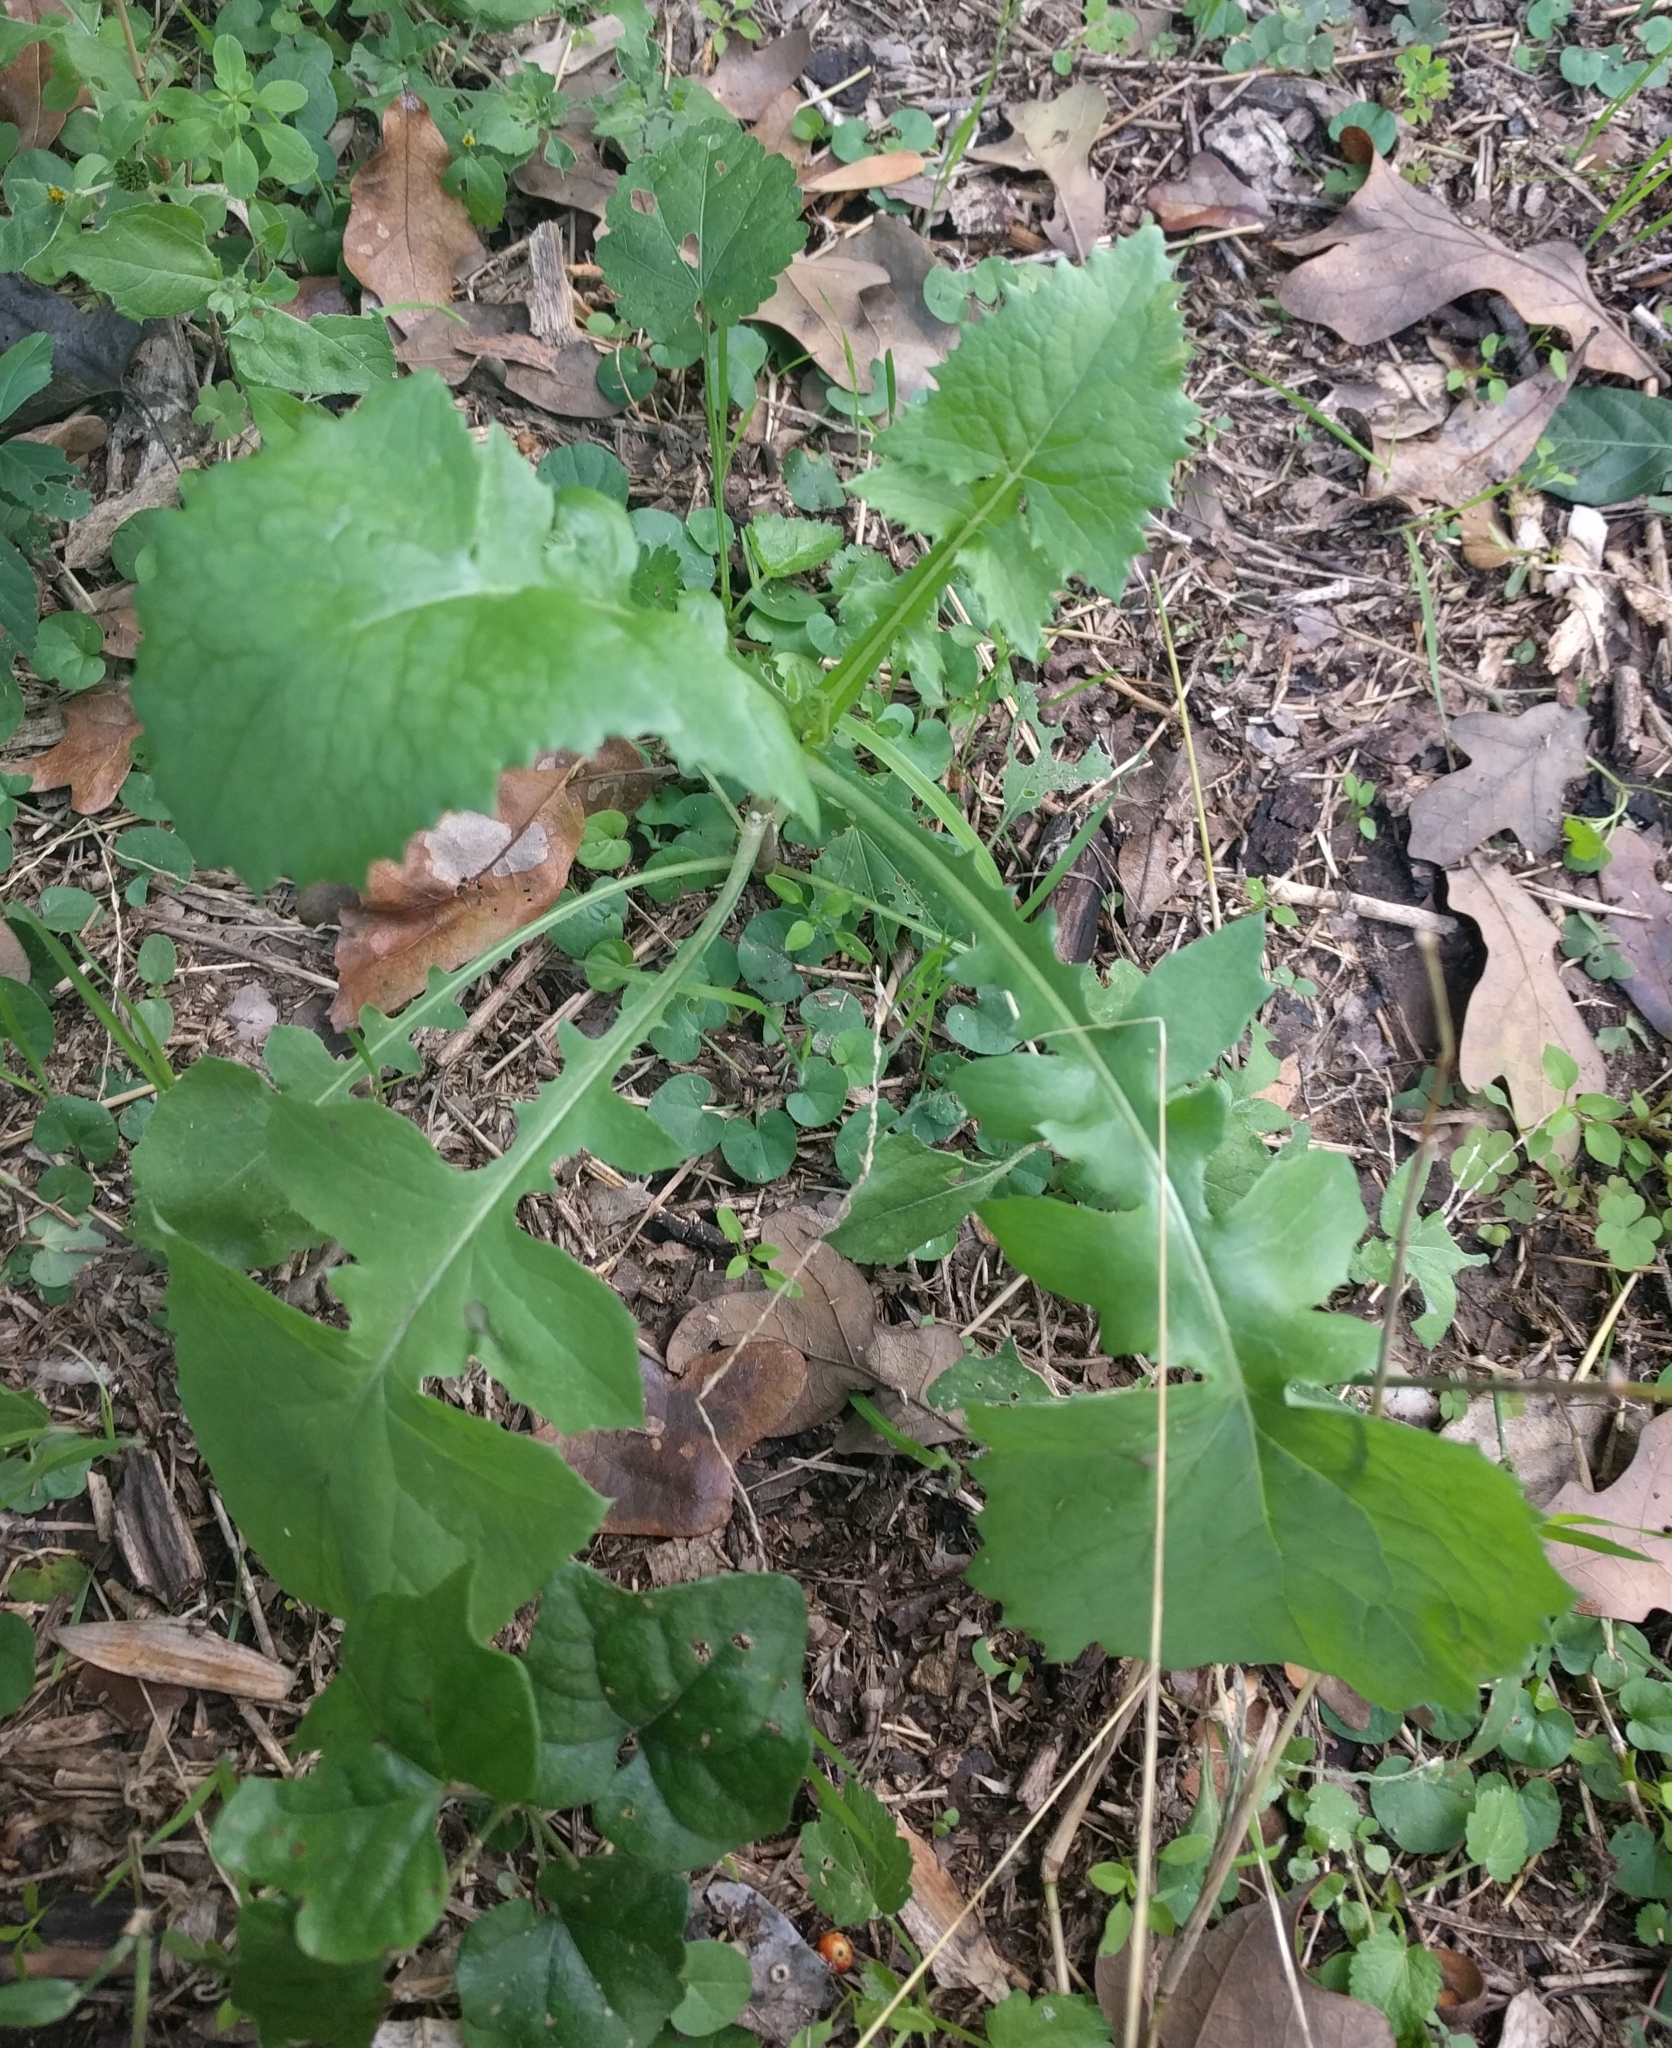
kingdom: Plantae
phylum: Tracheophyta
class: Magnoliopsida
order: Asterales
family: Asteraceae
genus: Sonchus
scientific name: Sonchus oleraceus
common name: Common sowthistle
